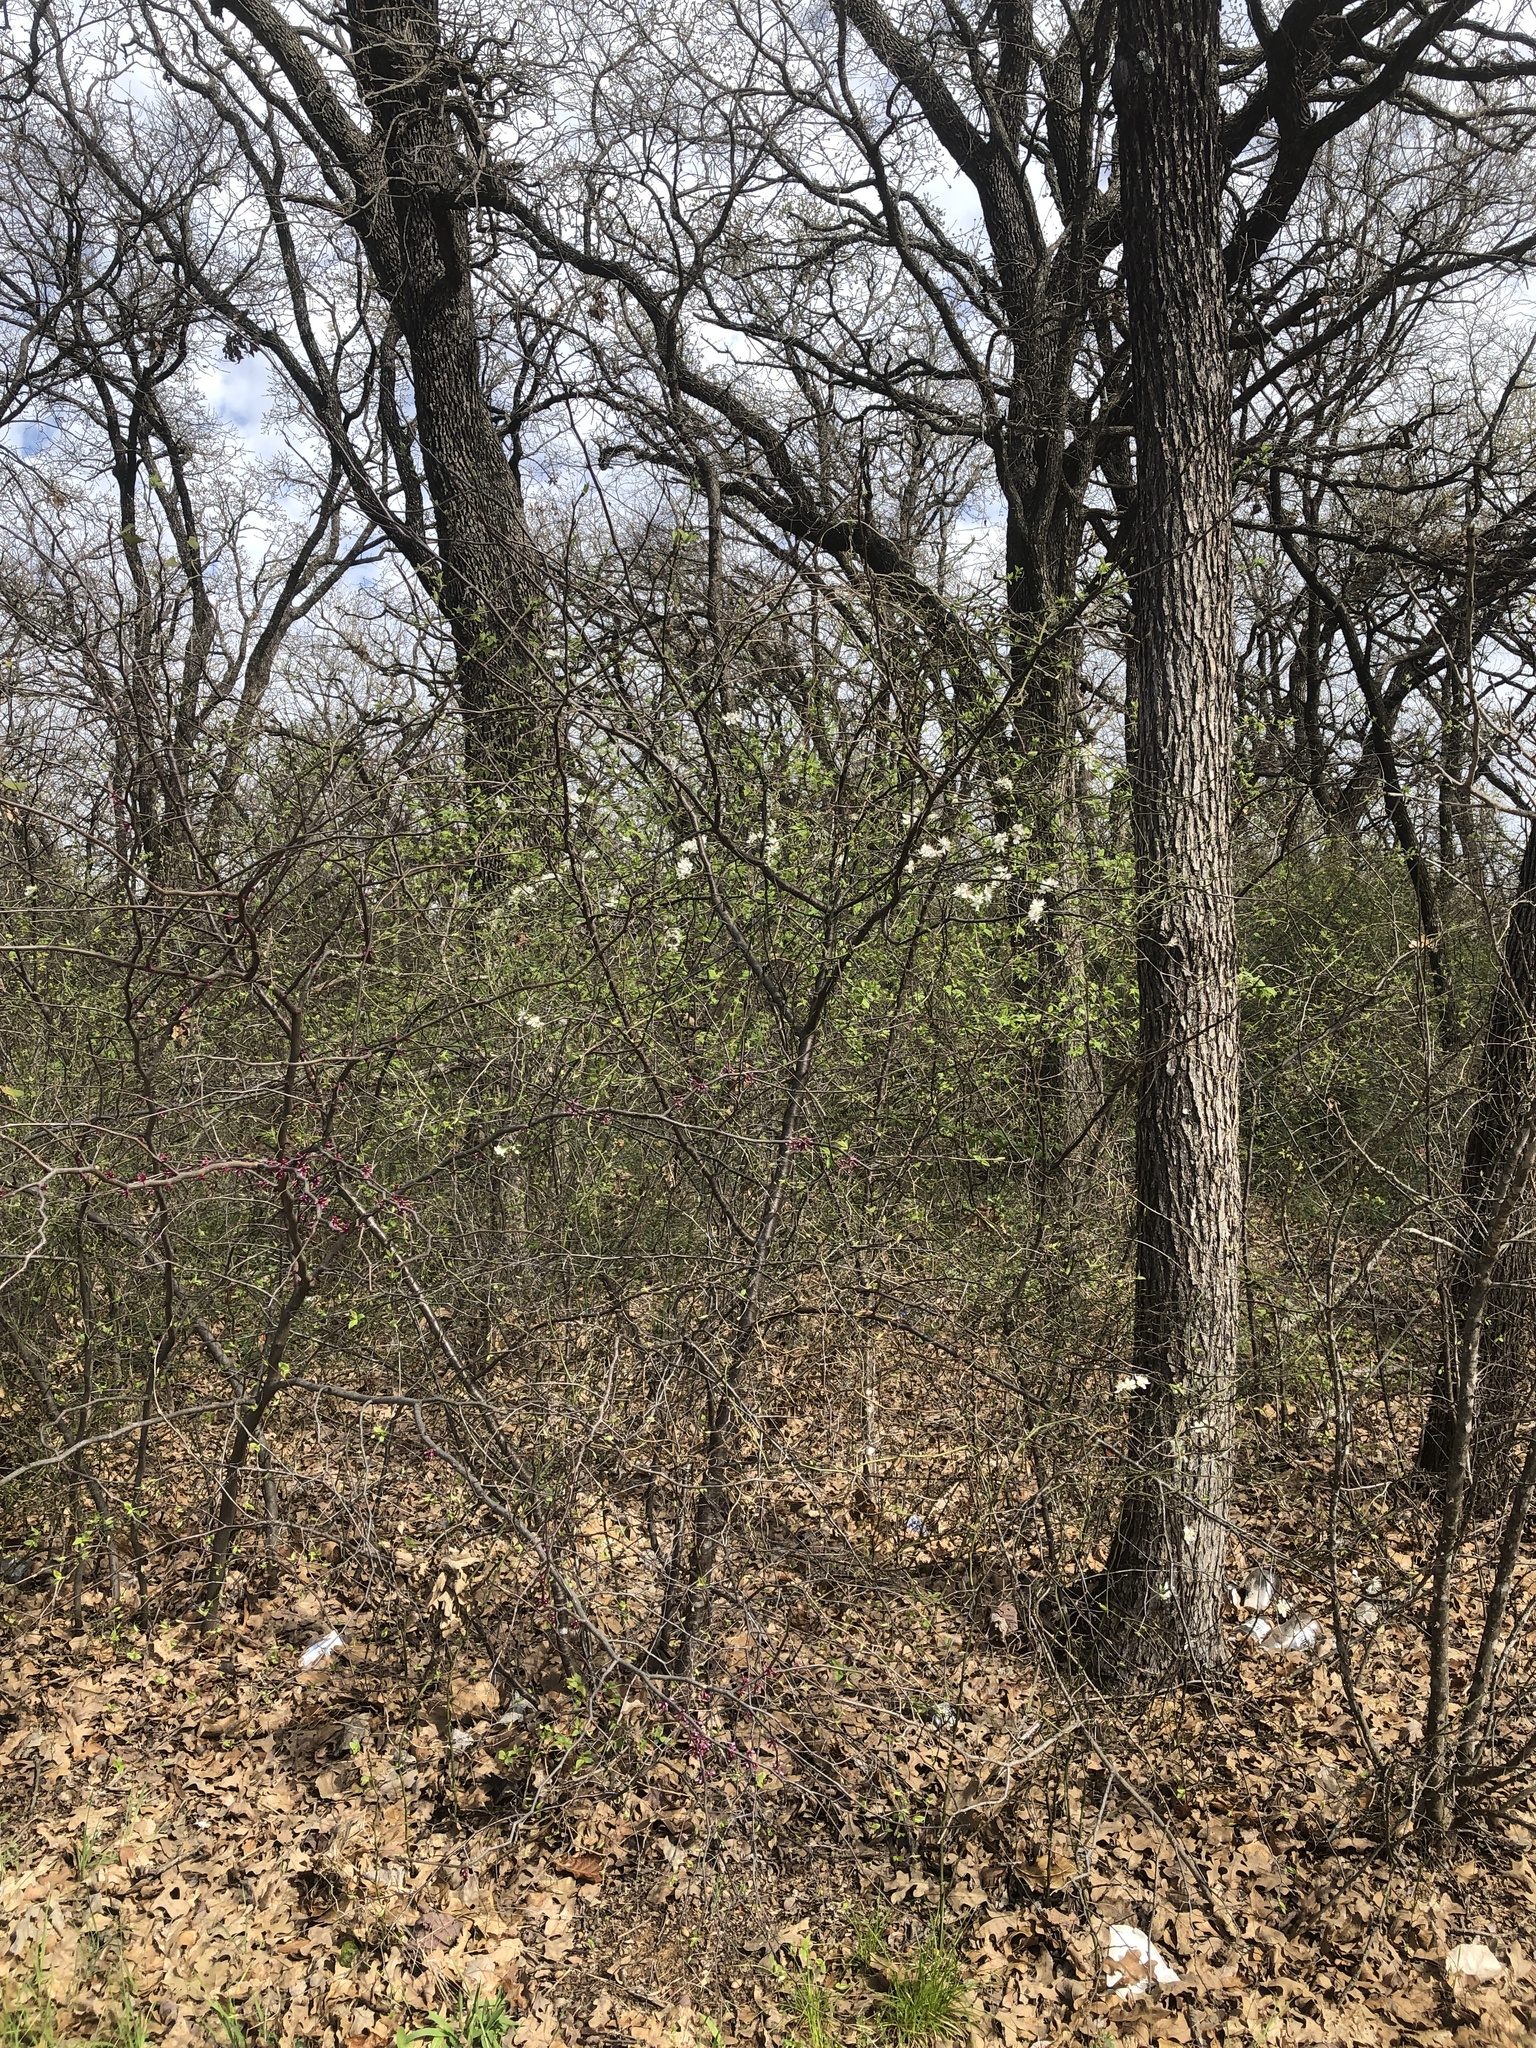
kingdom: Plantae
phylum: Tracheophyta
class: Magnoliopsida
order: Rosales
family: Rosaceae
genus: Prunus
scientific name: Prunus mexicana
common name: Mexican plum
